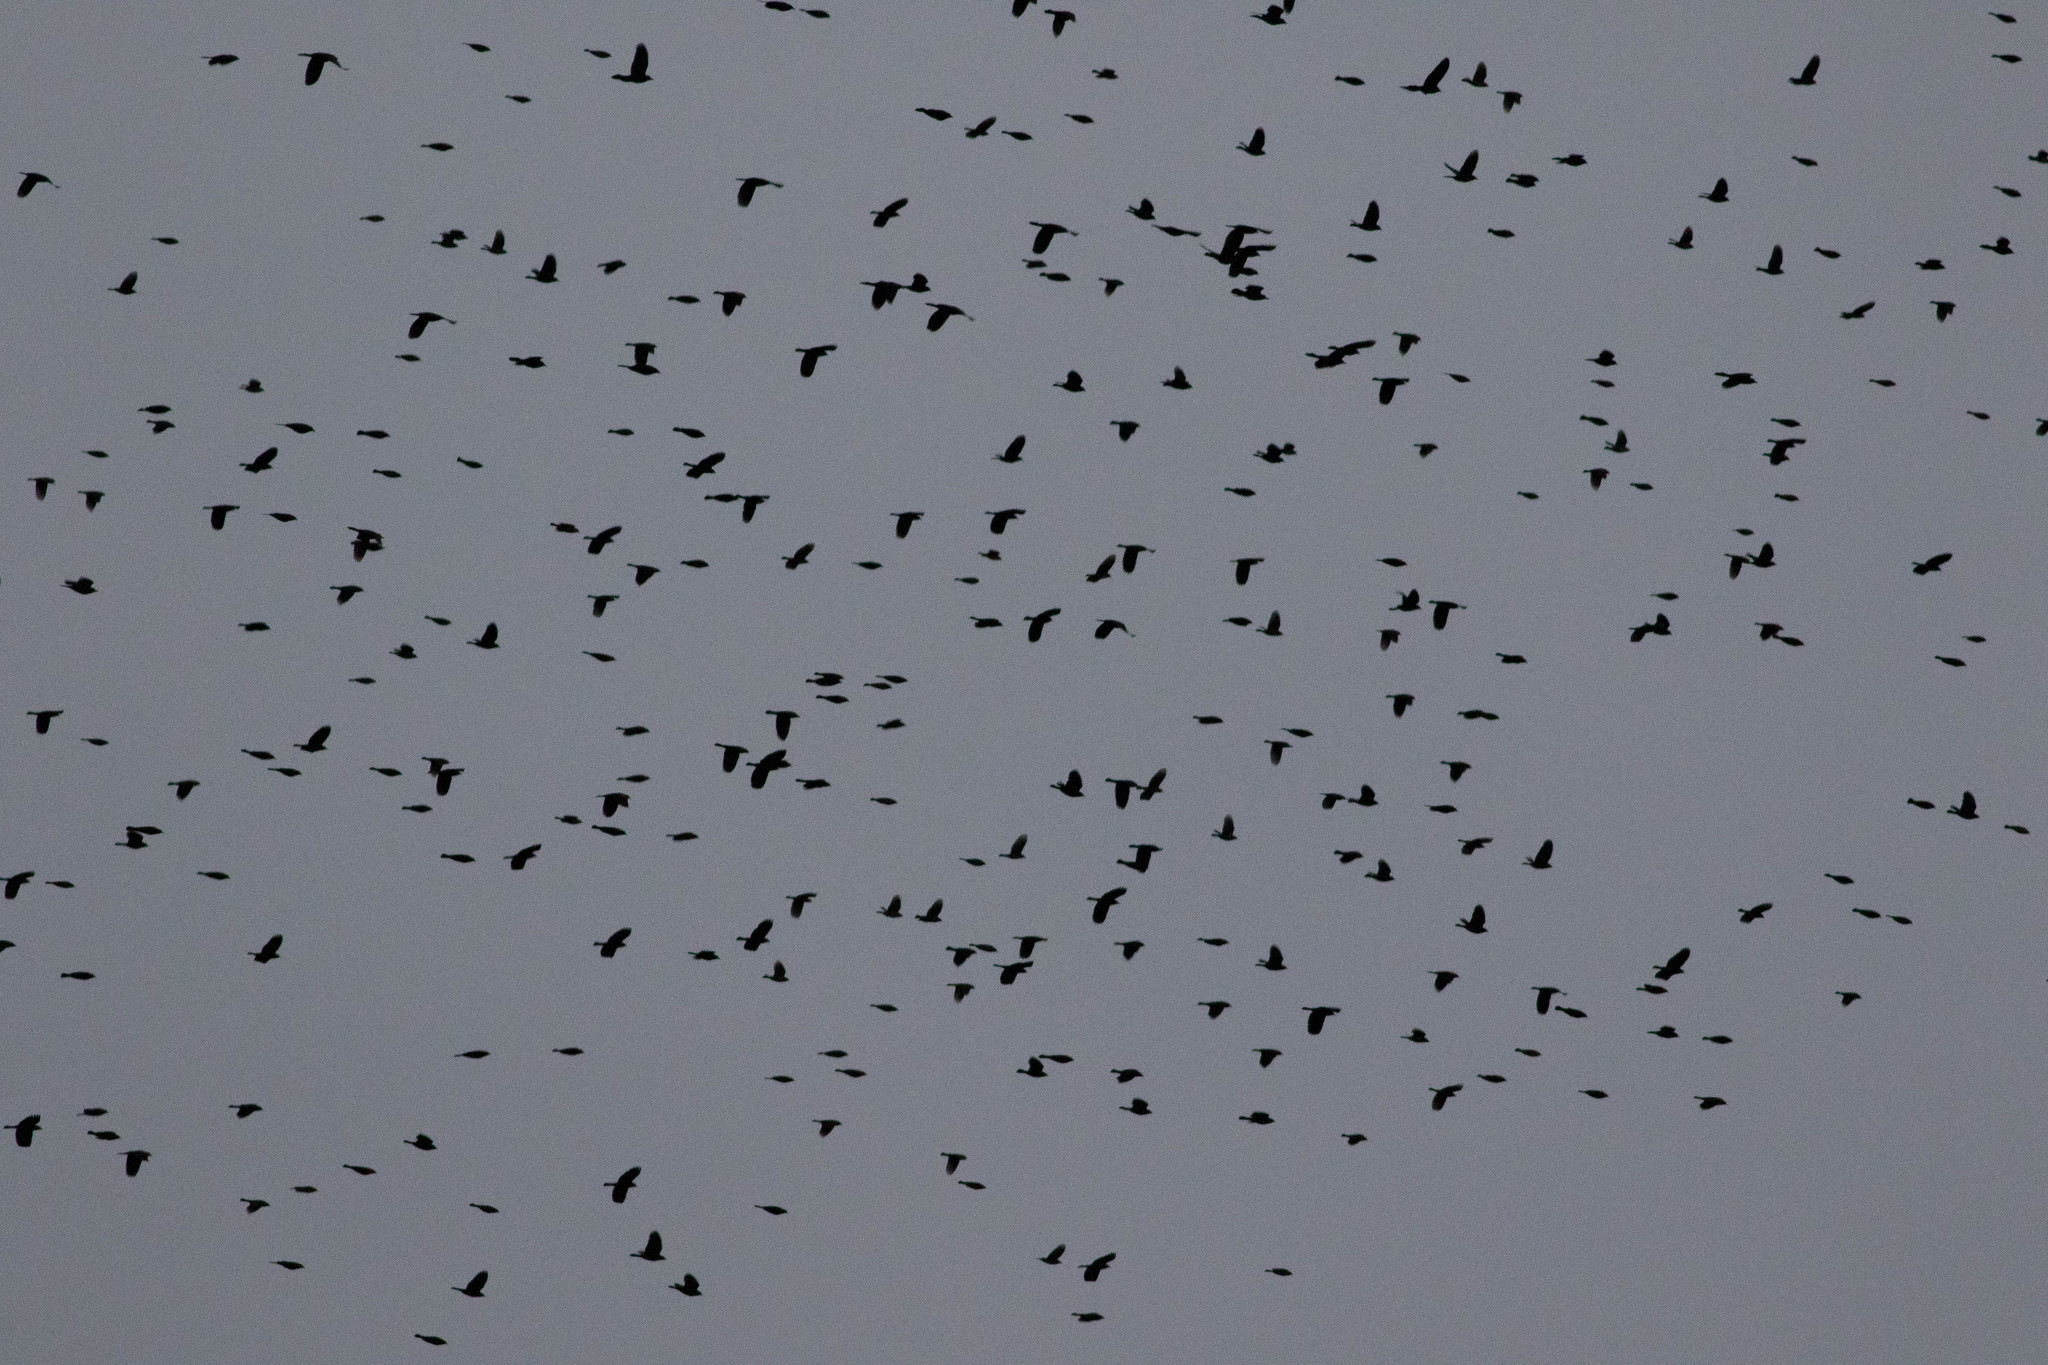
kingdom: Animalia
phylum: Chordata
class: Aves
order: Passeriformes
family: Icteridae
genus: Quiscalus
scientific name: Quiscalus quiscula
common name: Common grackle
